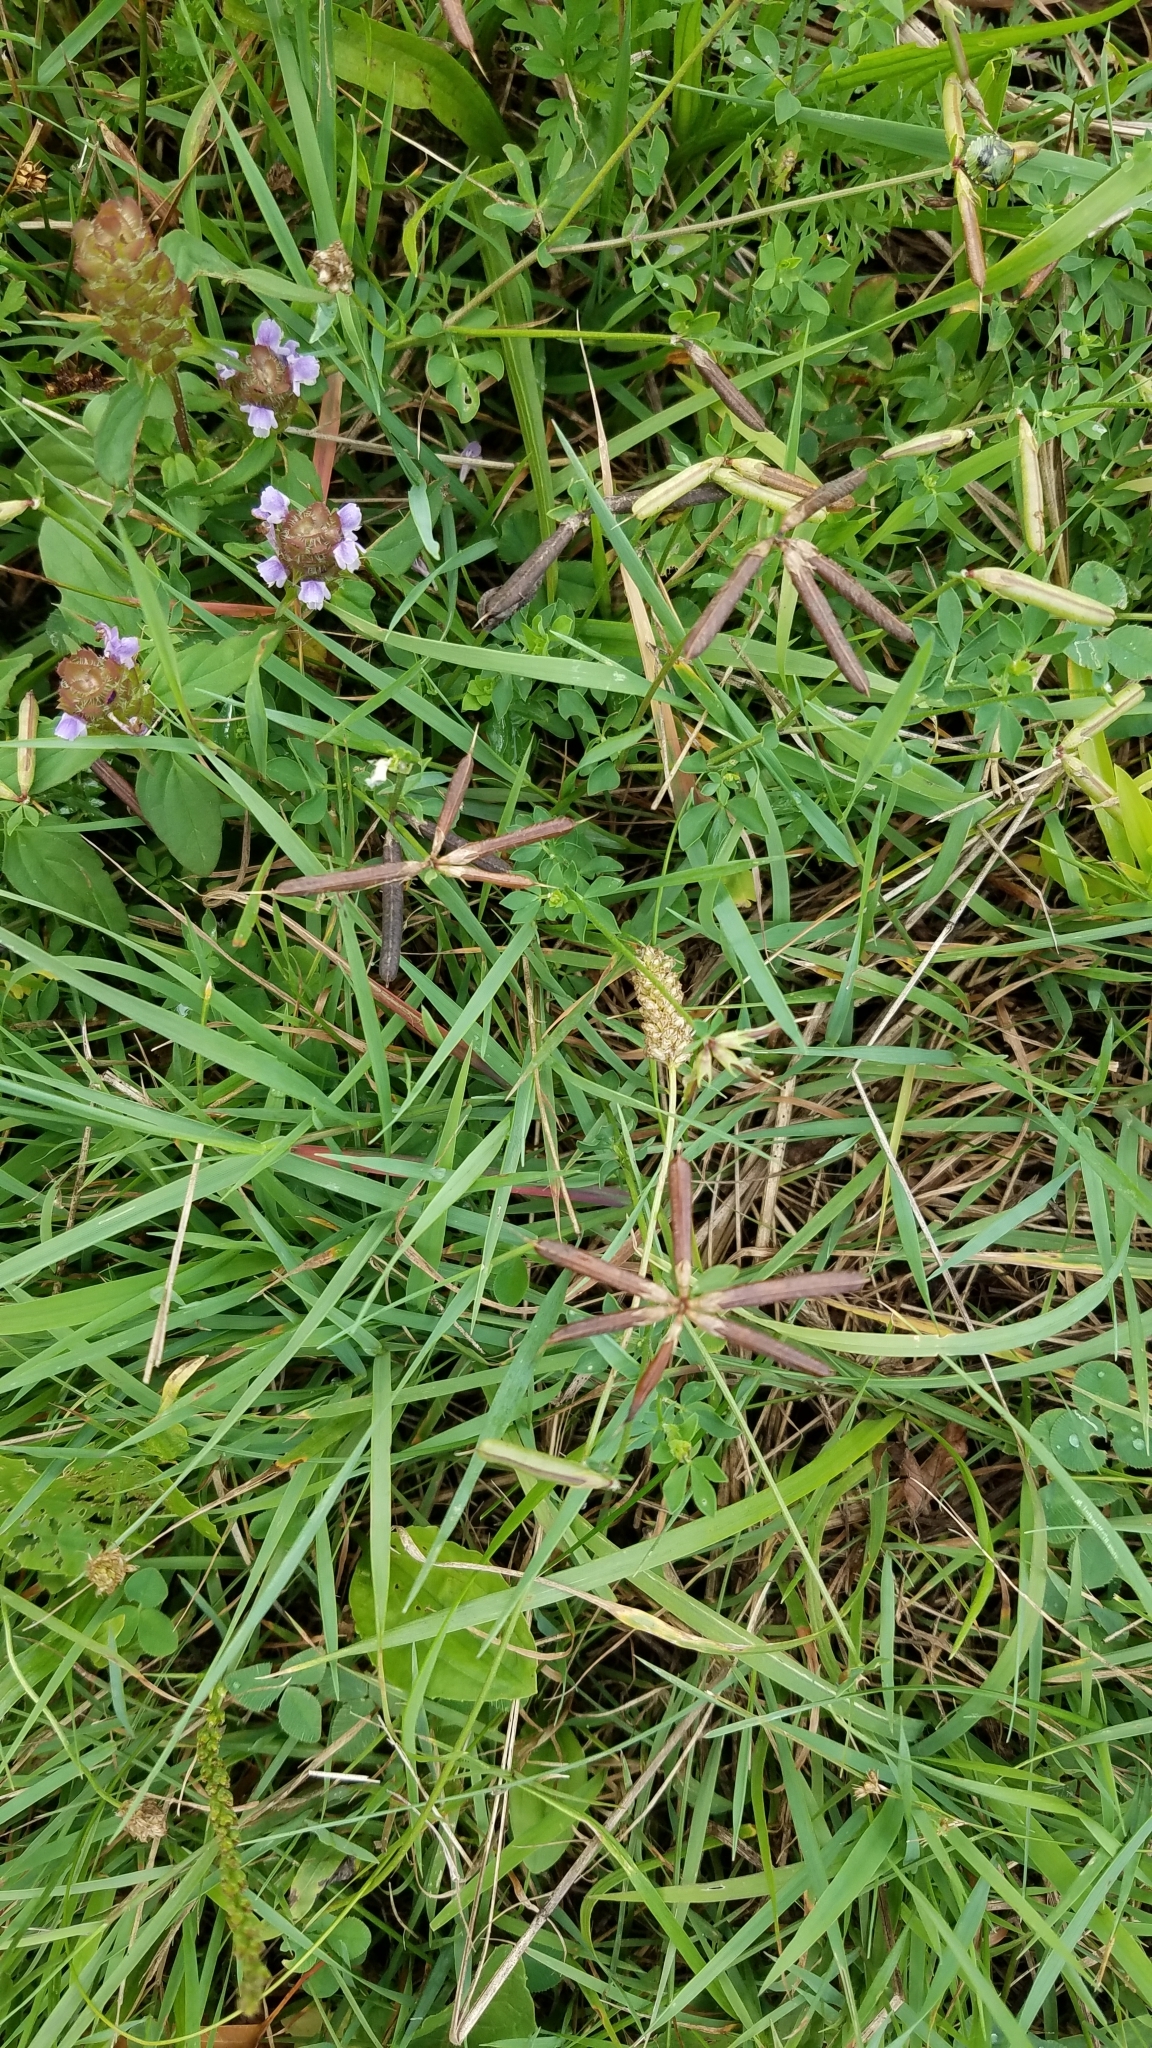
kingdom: Plantae
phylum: Tracheophyta
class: Magnoliopsida
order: Fabales
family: Fabaceae
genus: Lotus
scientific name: Lotus corniculatus
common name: Common bird's-foot-trefoil
